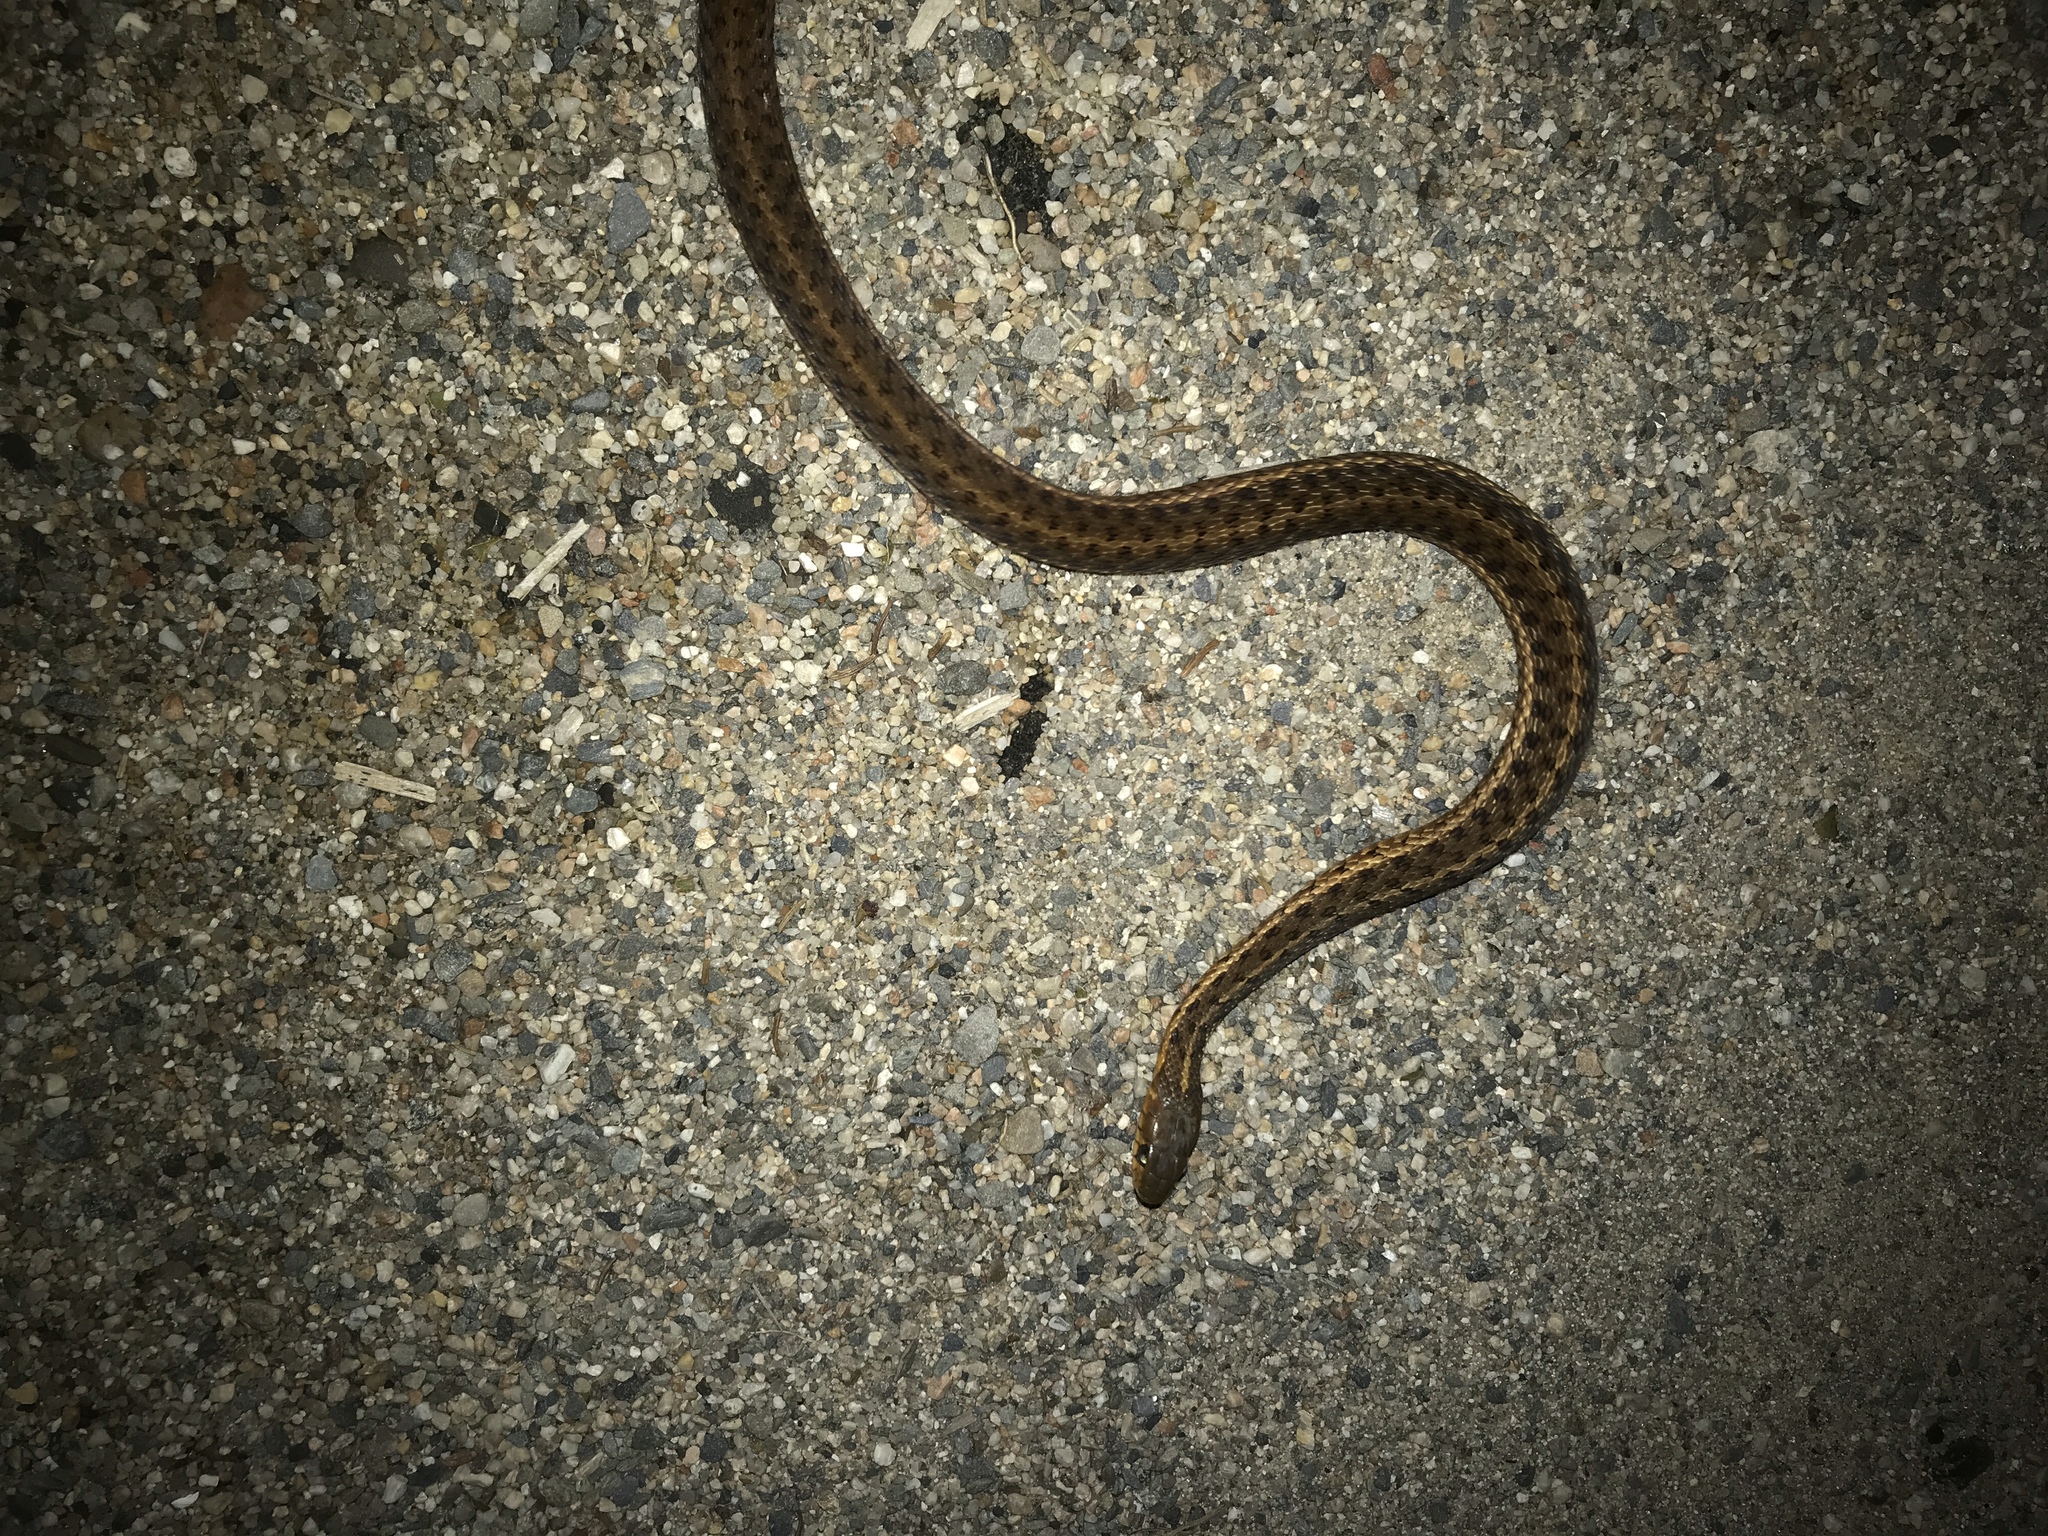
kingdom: Animalia
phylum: Chordata
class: Squamata
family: Colubridae
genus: Thamnophis
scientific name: Thamnophis sirtalis
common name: Common garter snake
